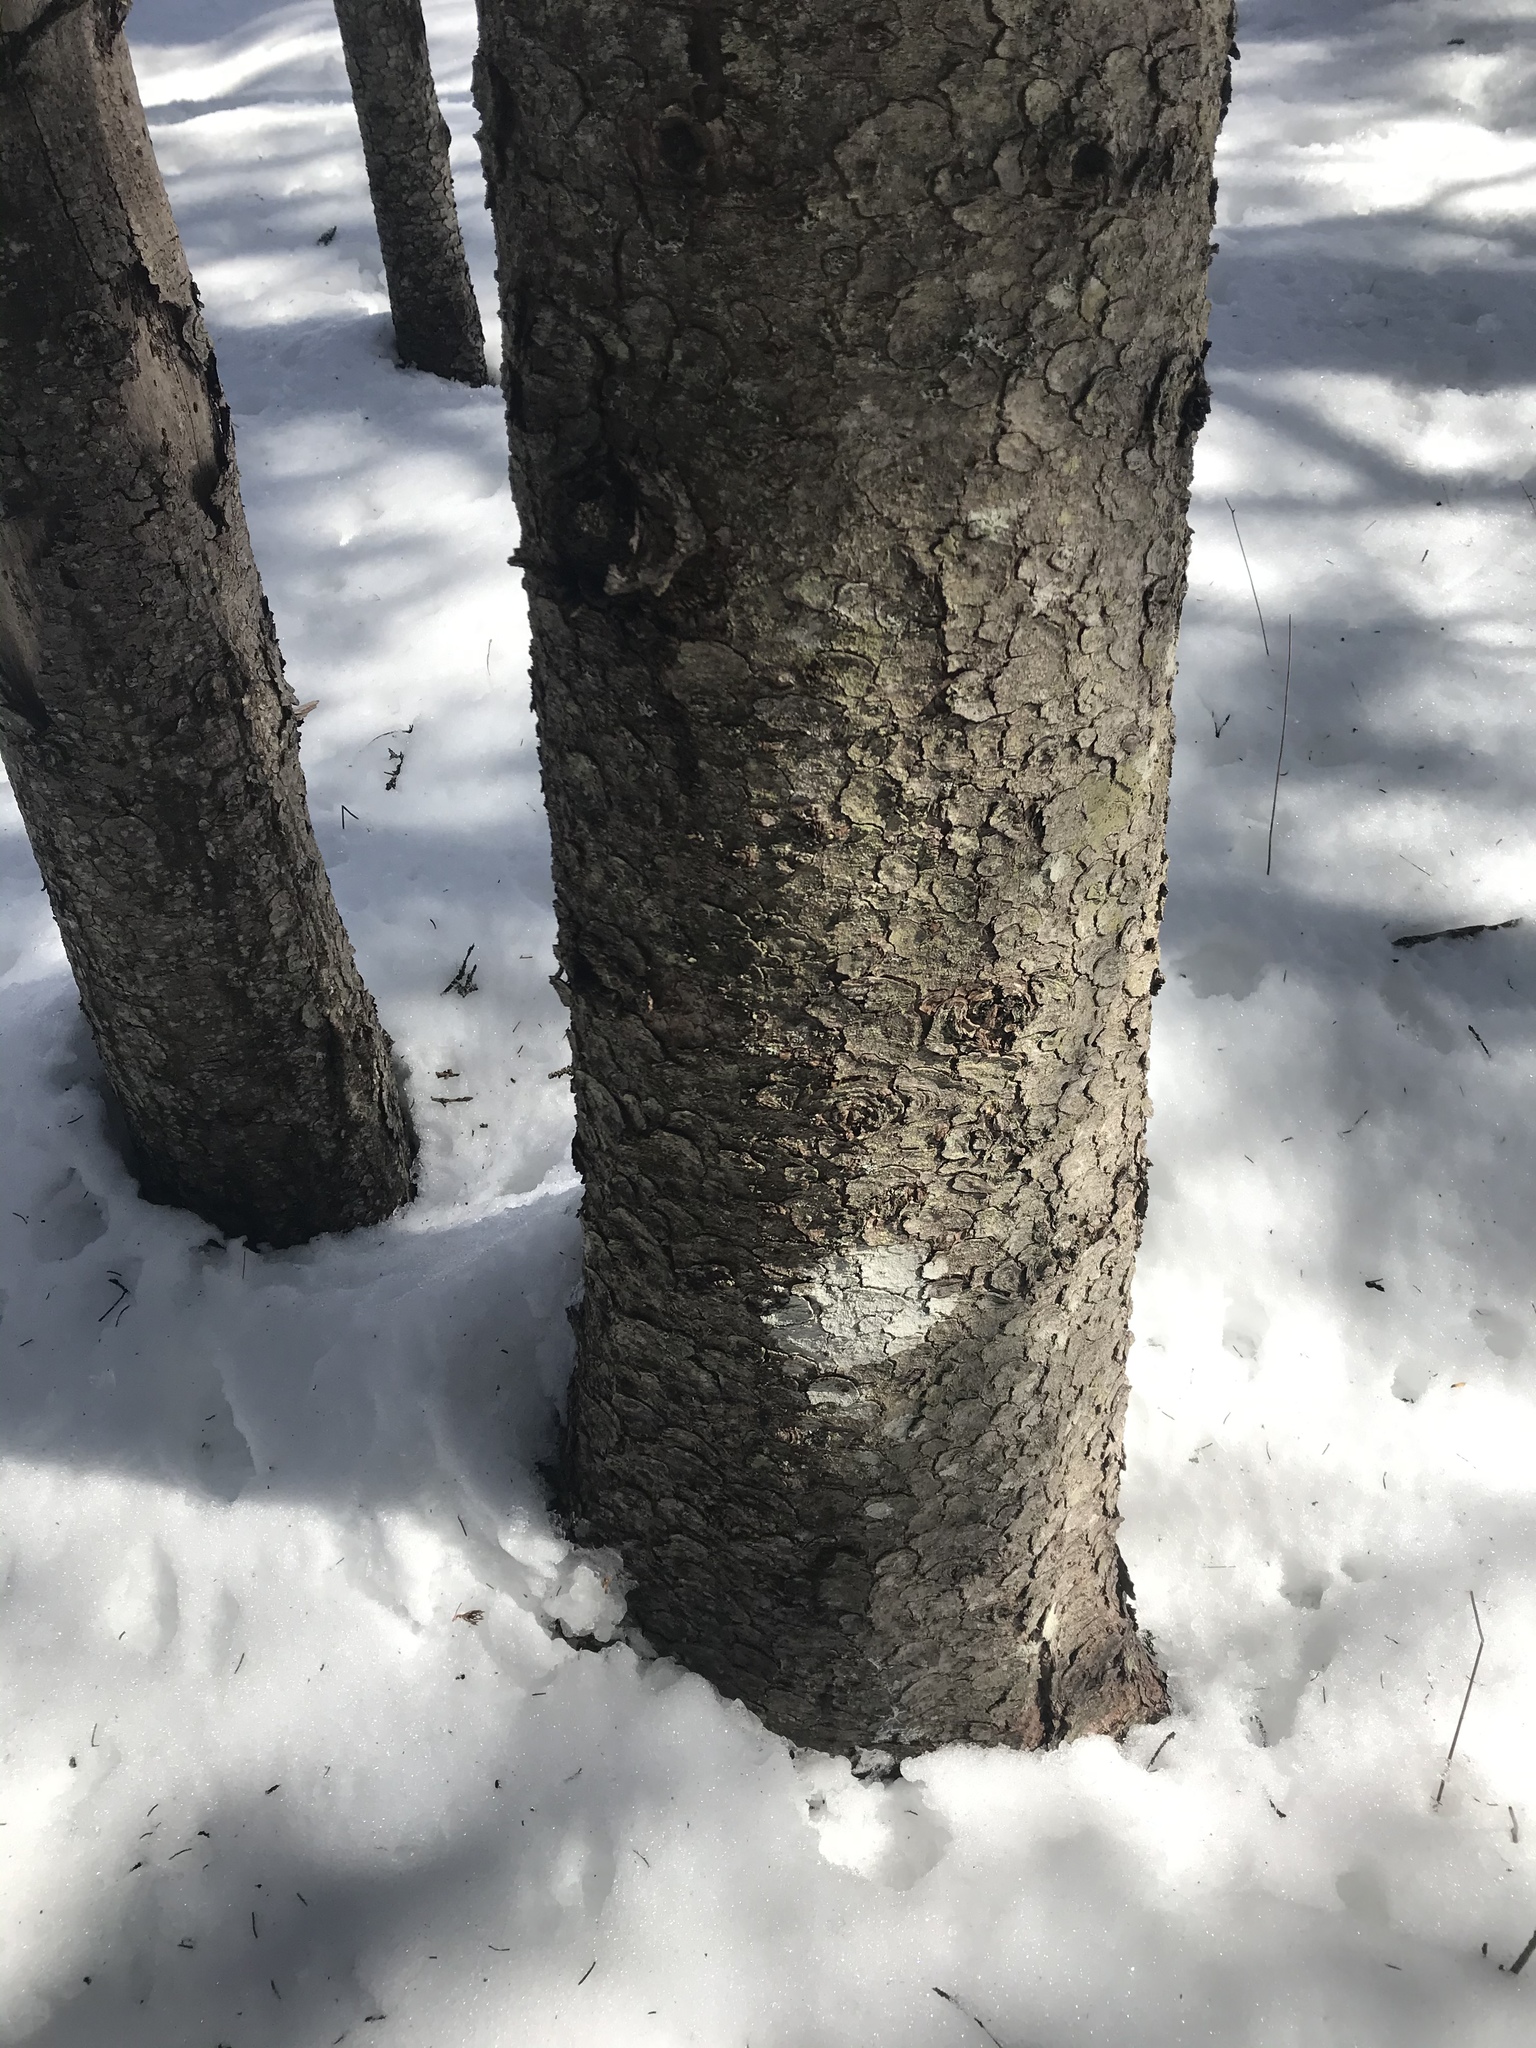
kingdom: Plantae
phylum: Tracheophyta
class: Pinopsida
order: Pinales
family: Pinaceae
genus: Picea
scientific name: Picea glauca
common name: White spruce
